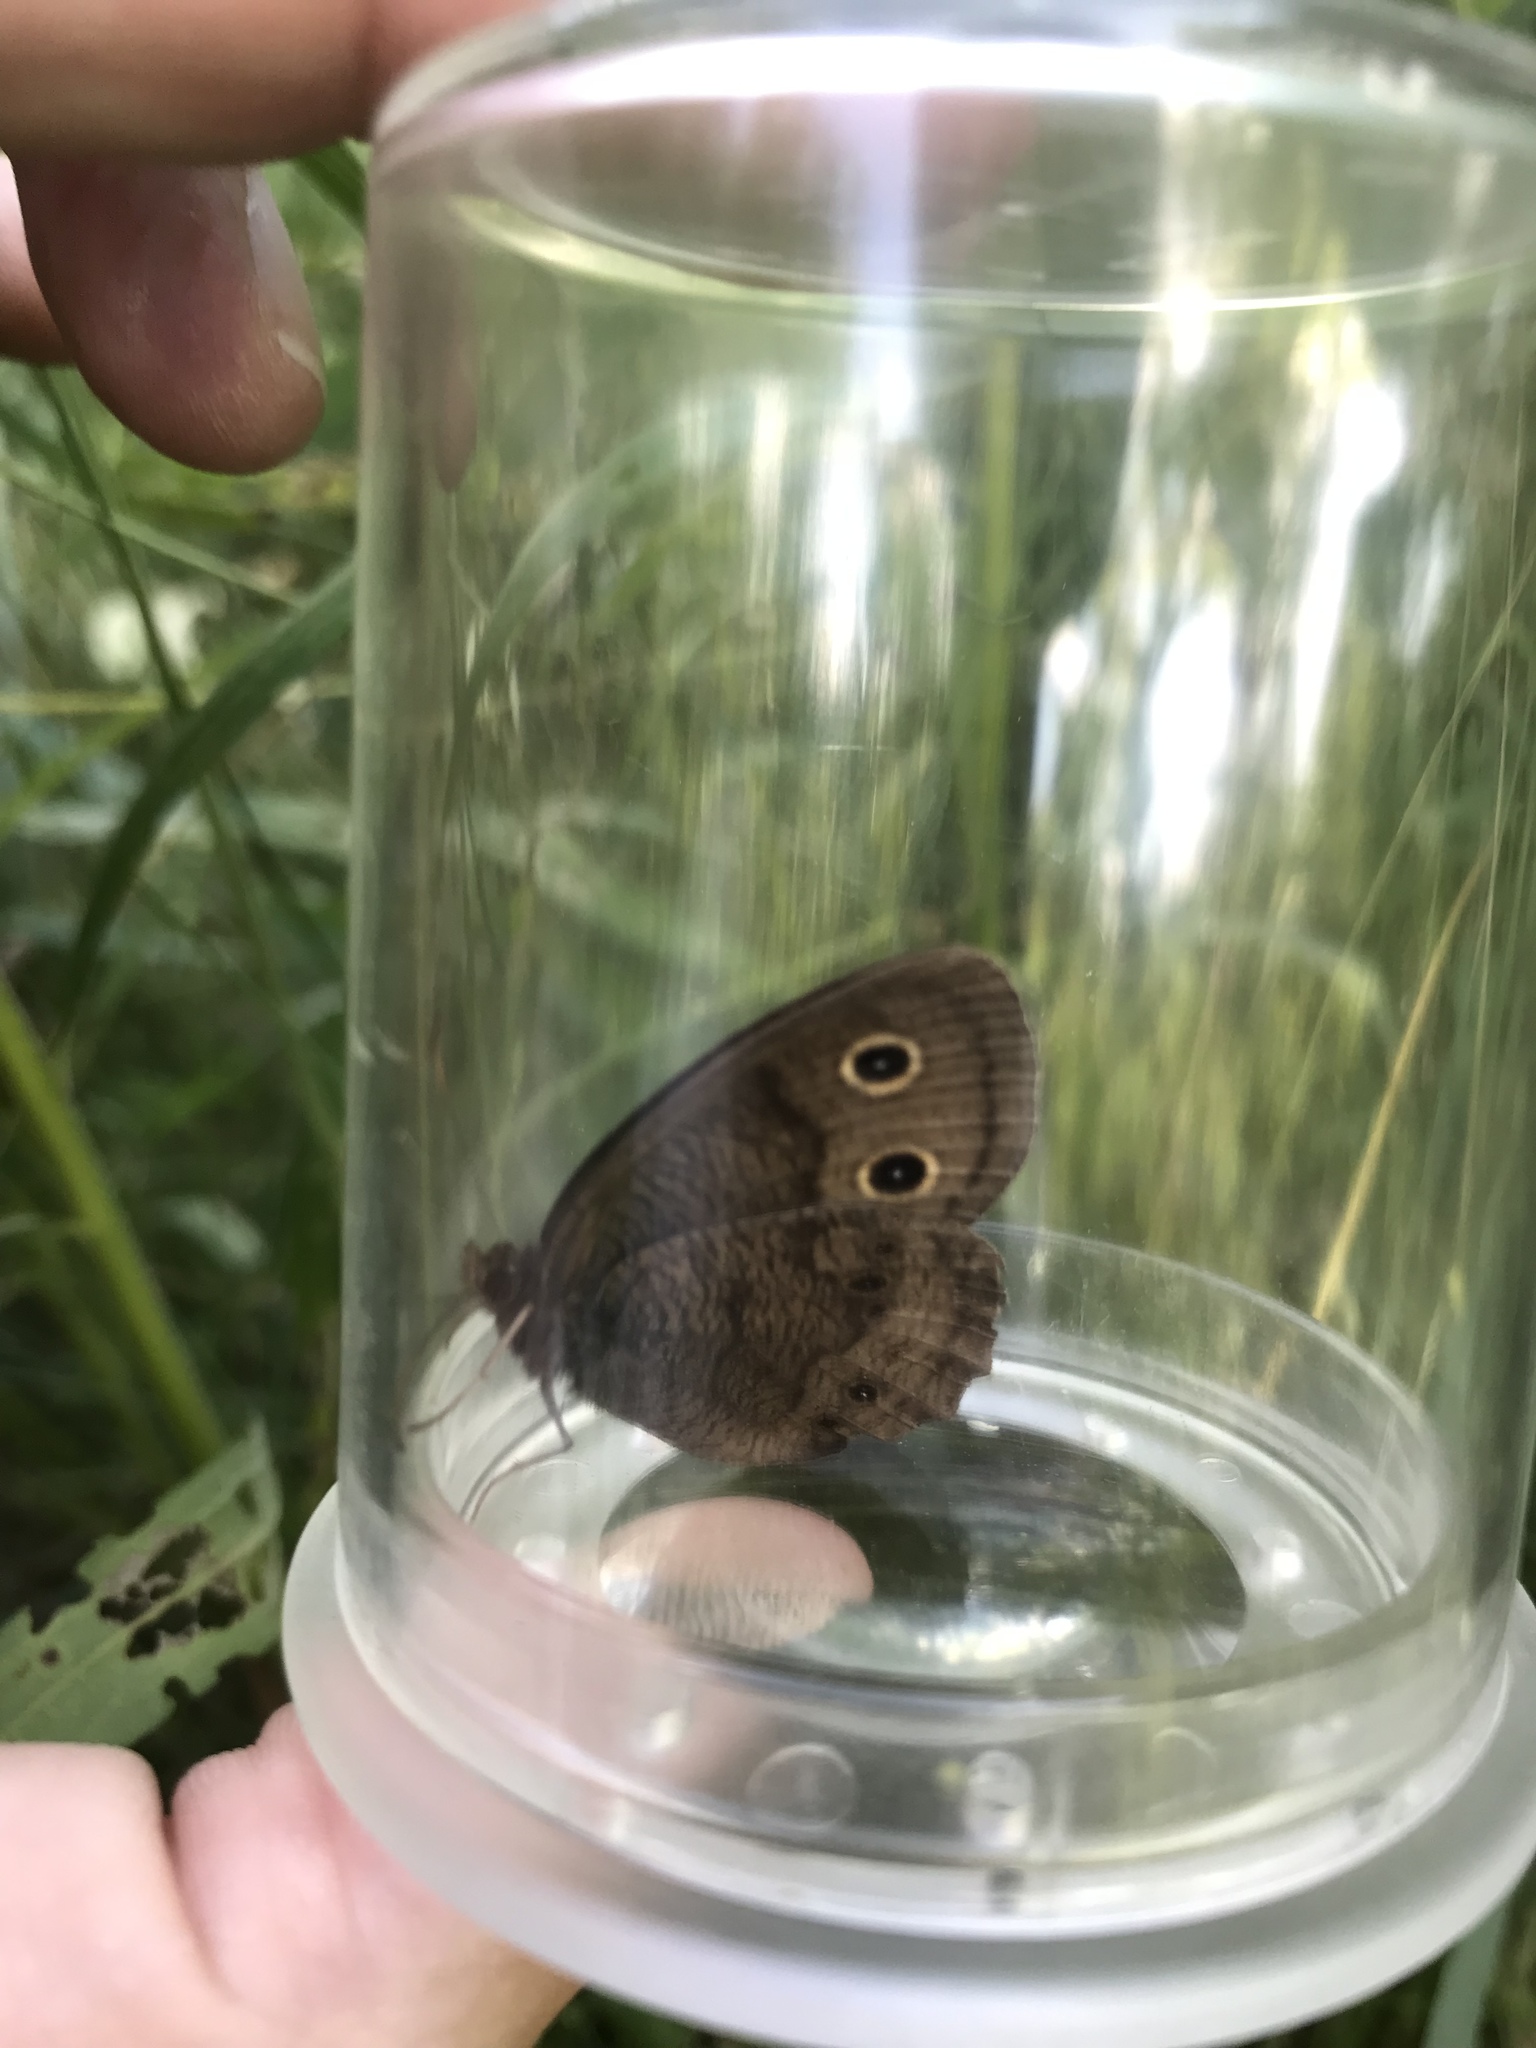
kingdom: Animalia
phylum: Arthropoda
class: Insecta
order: Lepidoptera
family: Nymphalidae
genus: Cercyonis
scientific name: Cercyonis pegala
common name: Common wood-nymph
